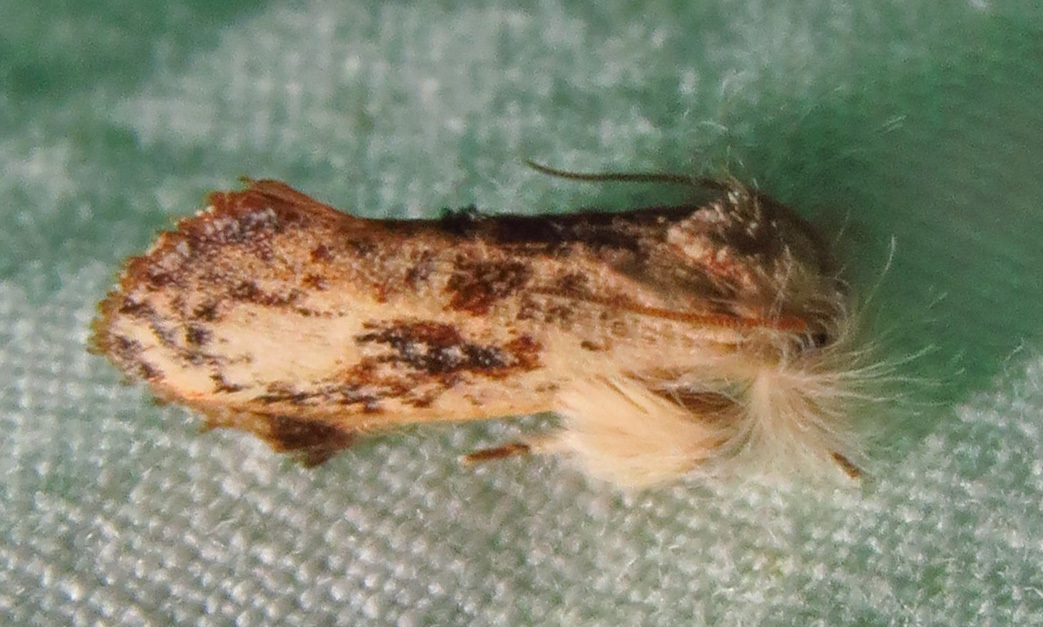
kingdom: Animalia
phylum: Arthropoda
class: Insecta
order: Lepidoptera
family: Tineidae
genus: Acrolophus
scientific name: Acrolophus mycetophagus
